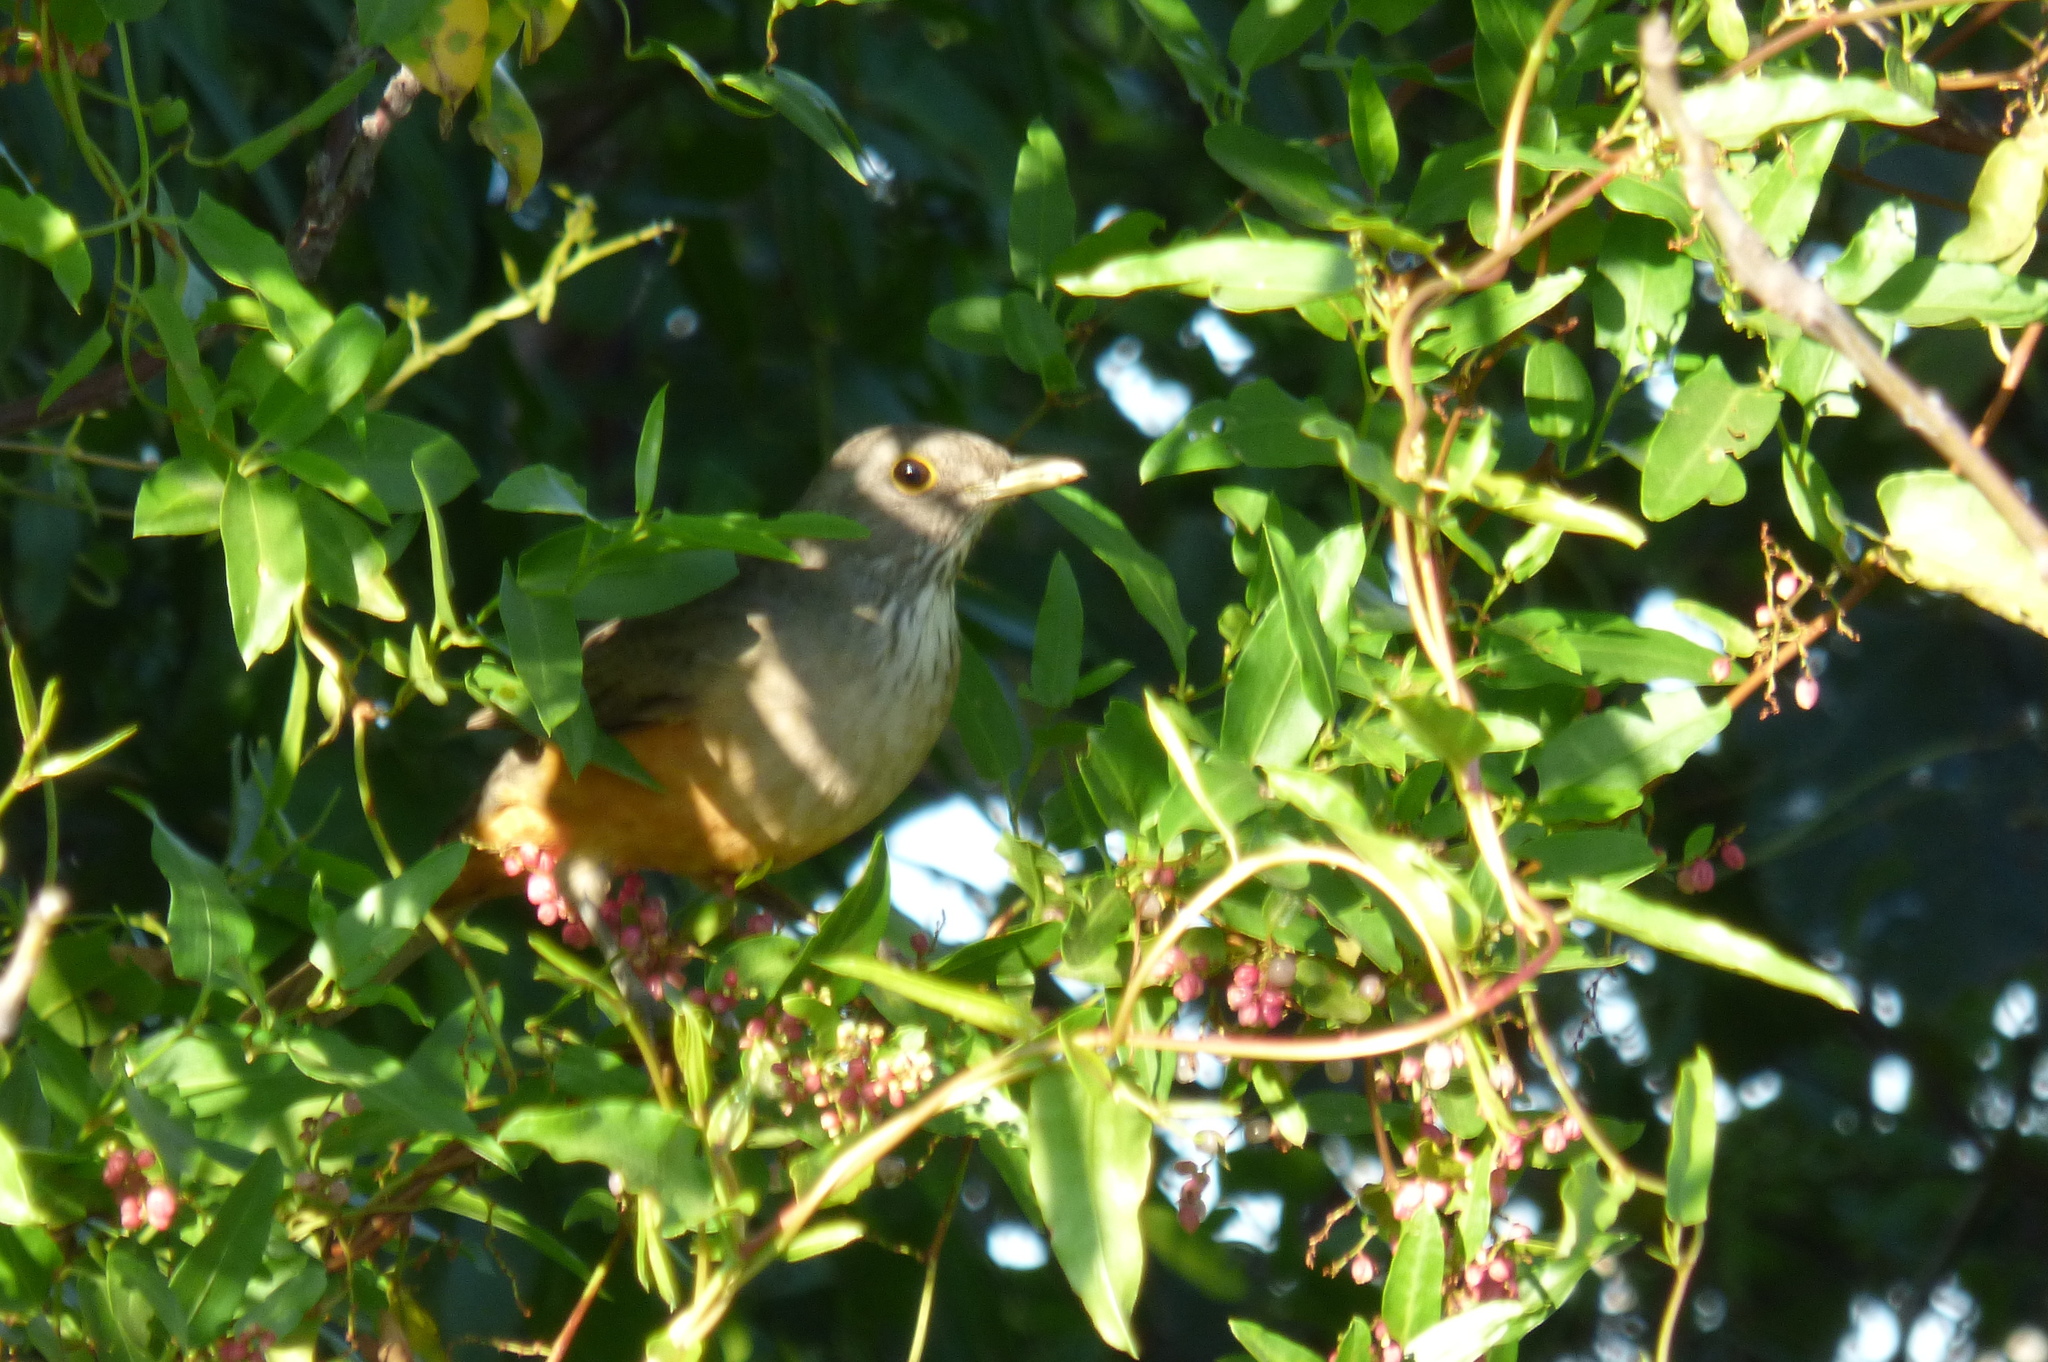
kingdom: Animalia
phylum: Chordata
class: Aves
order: Passeriformes
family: Turdidae
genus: Turdus
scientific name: Turdus rufiventris
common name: Rufous-bellied thrush
